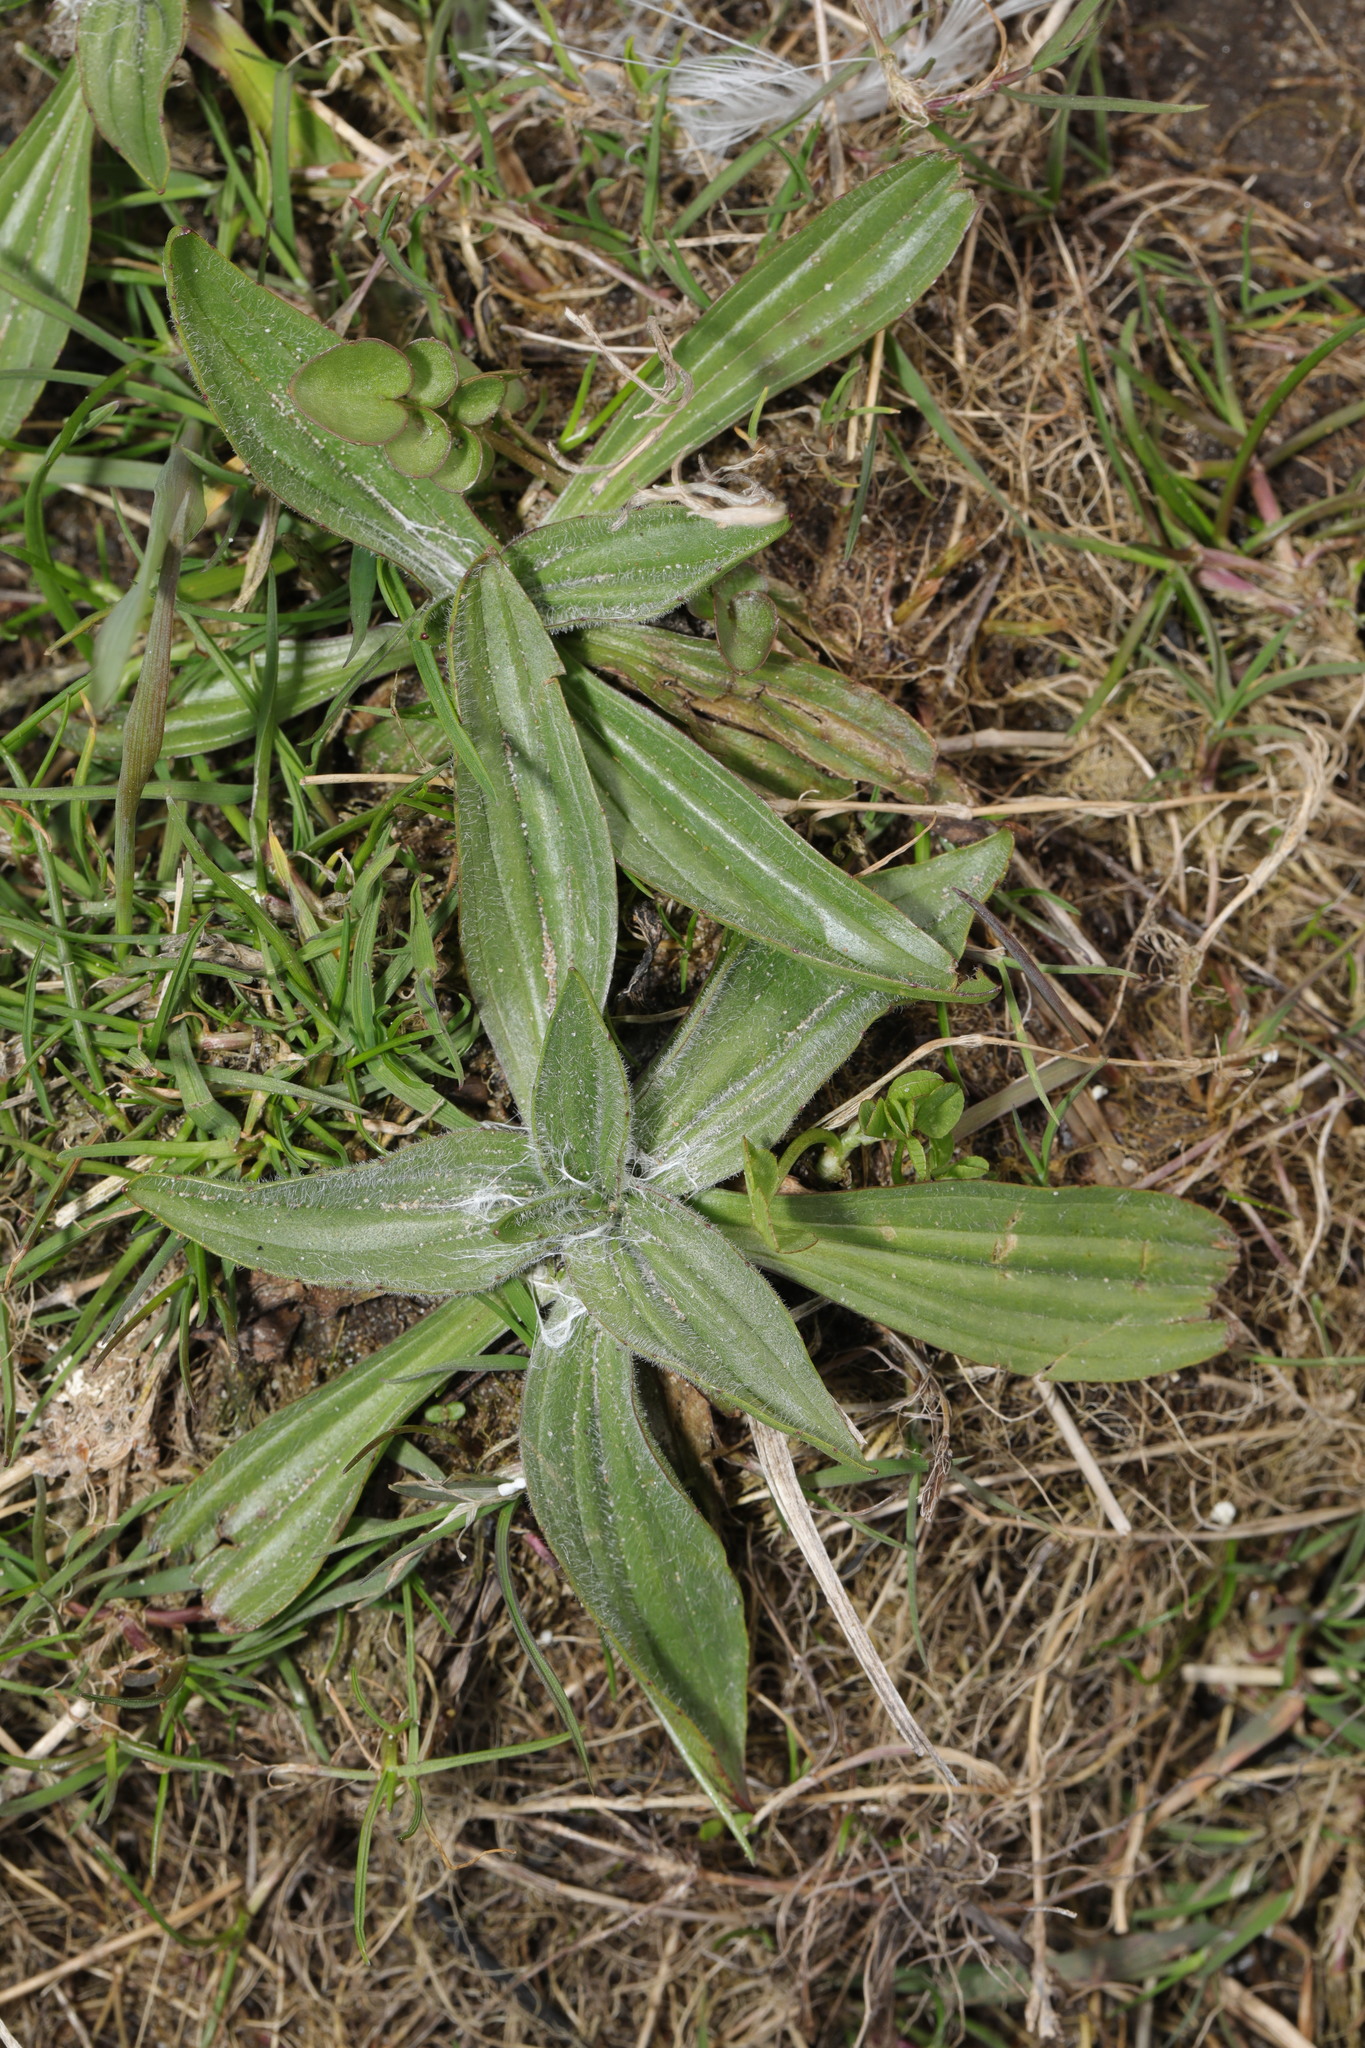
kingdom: Plantae
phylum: Tracheophyta
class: Magnoliopsida
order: Lamiales
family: Plantaginaceae
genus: Plantago
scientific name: Plantago lanceolata
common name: Ribwort plantain
